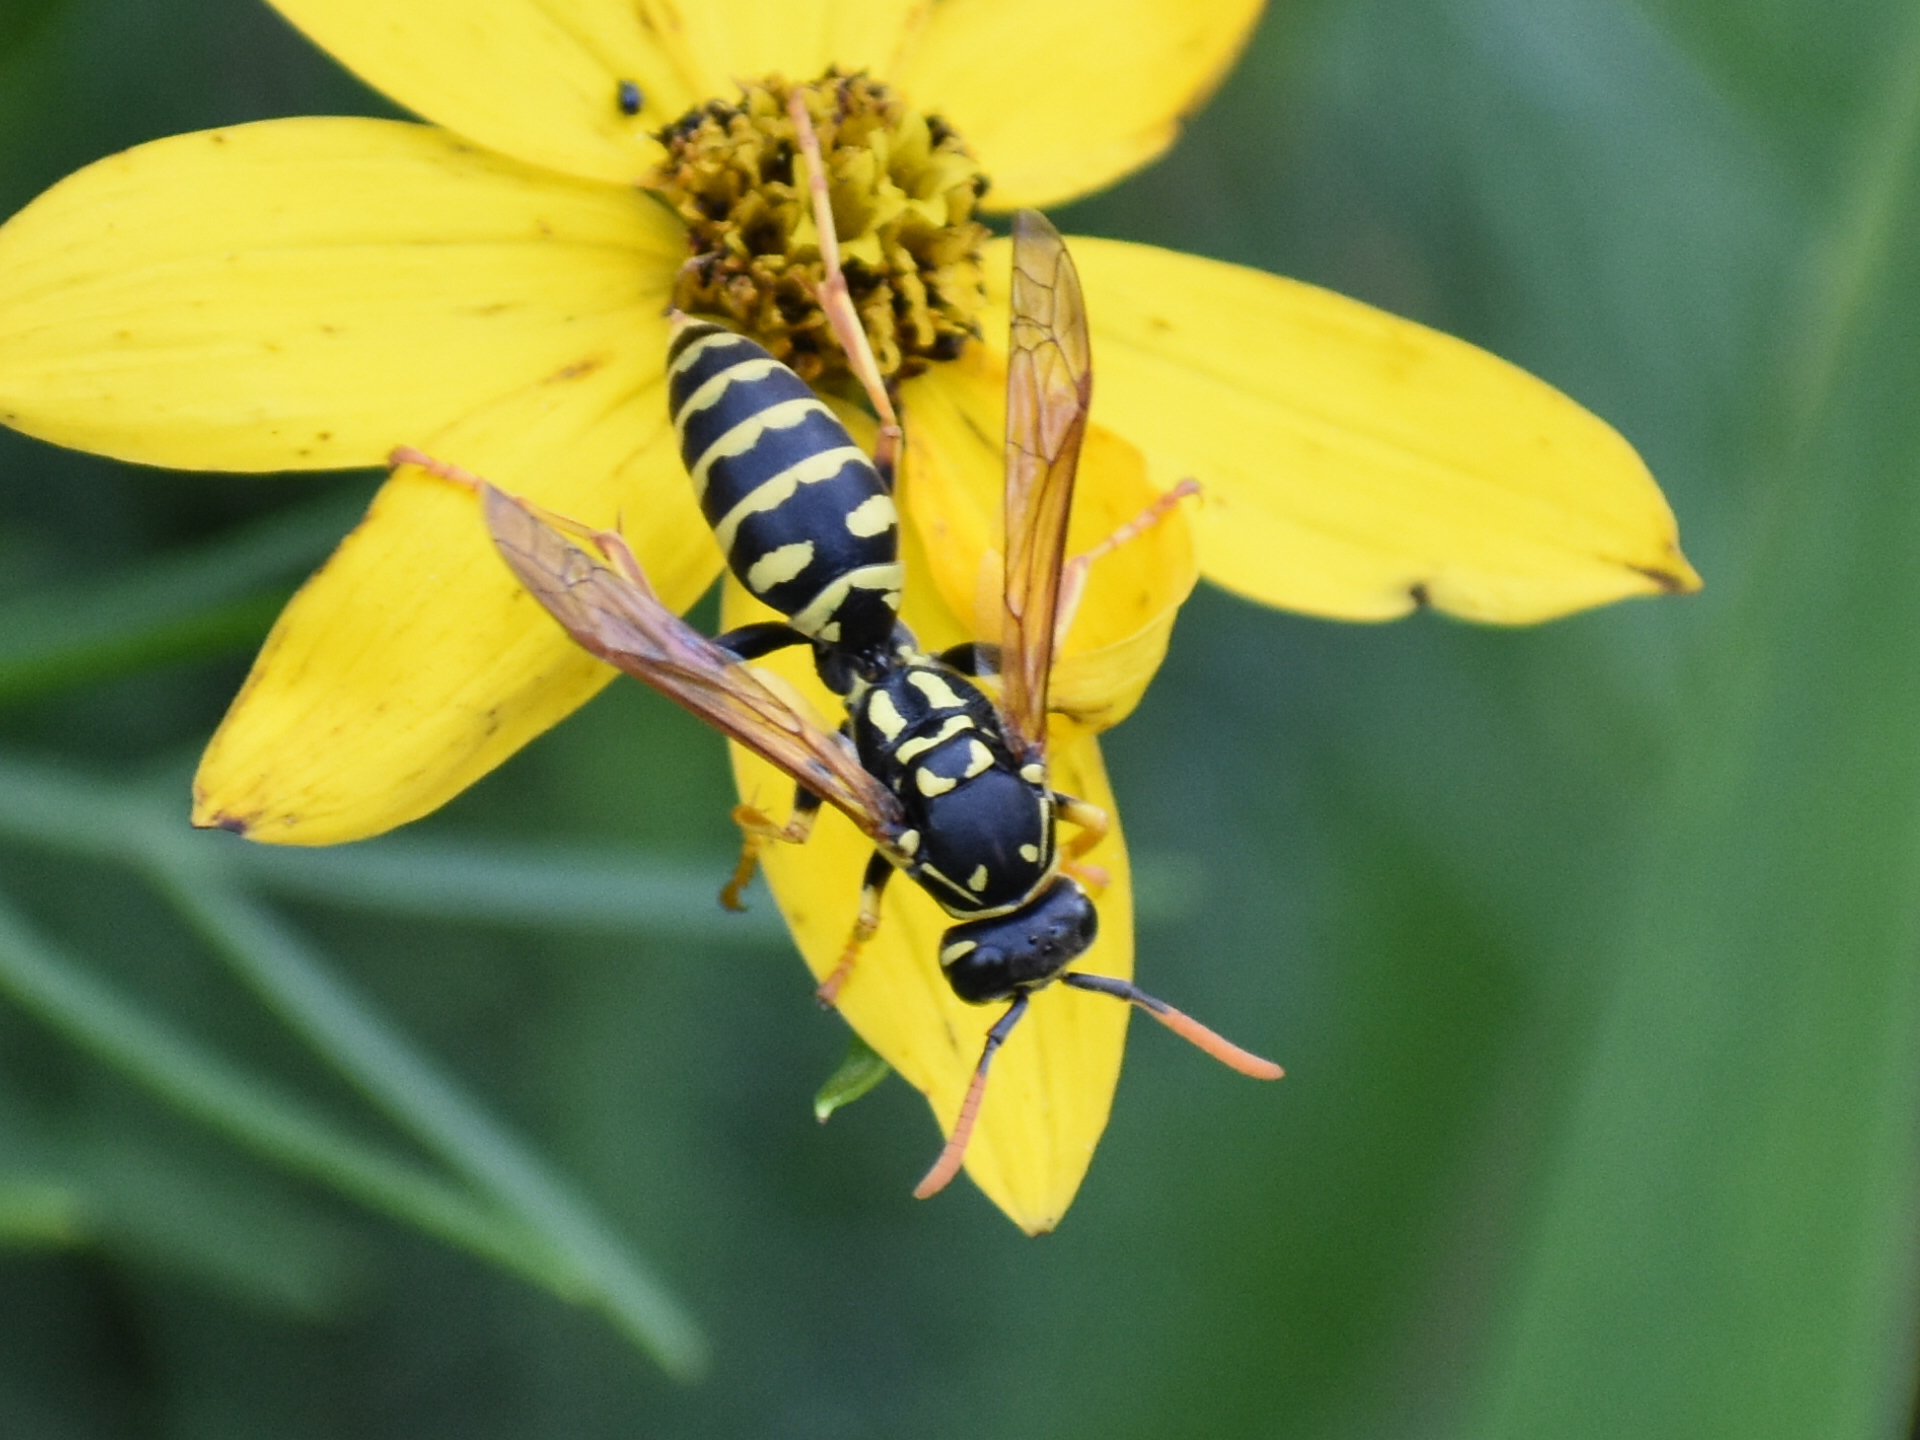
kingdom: Animalia
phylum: Arthropoda
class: Insecta
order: Hymenoptera
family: Eumenidae
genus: Polistes
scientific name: Polistes dominula
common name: Paper wasp
